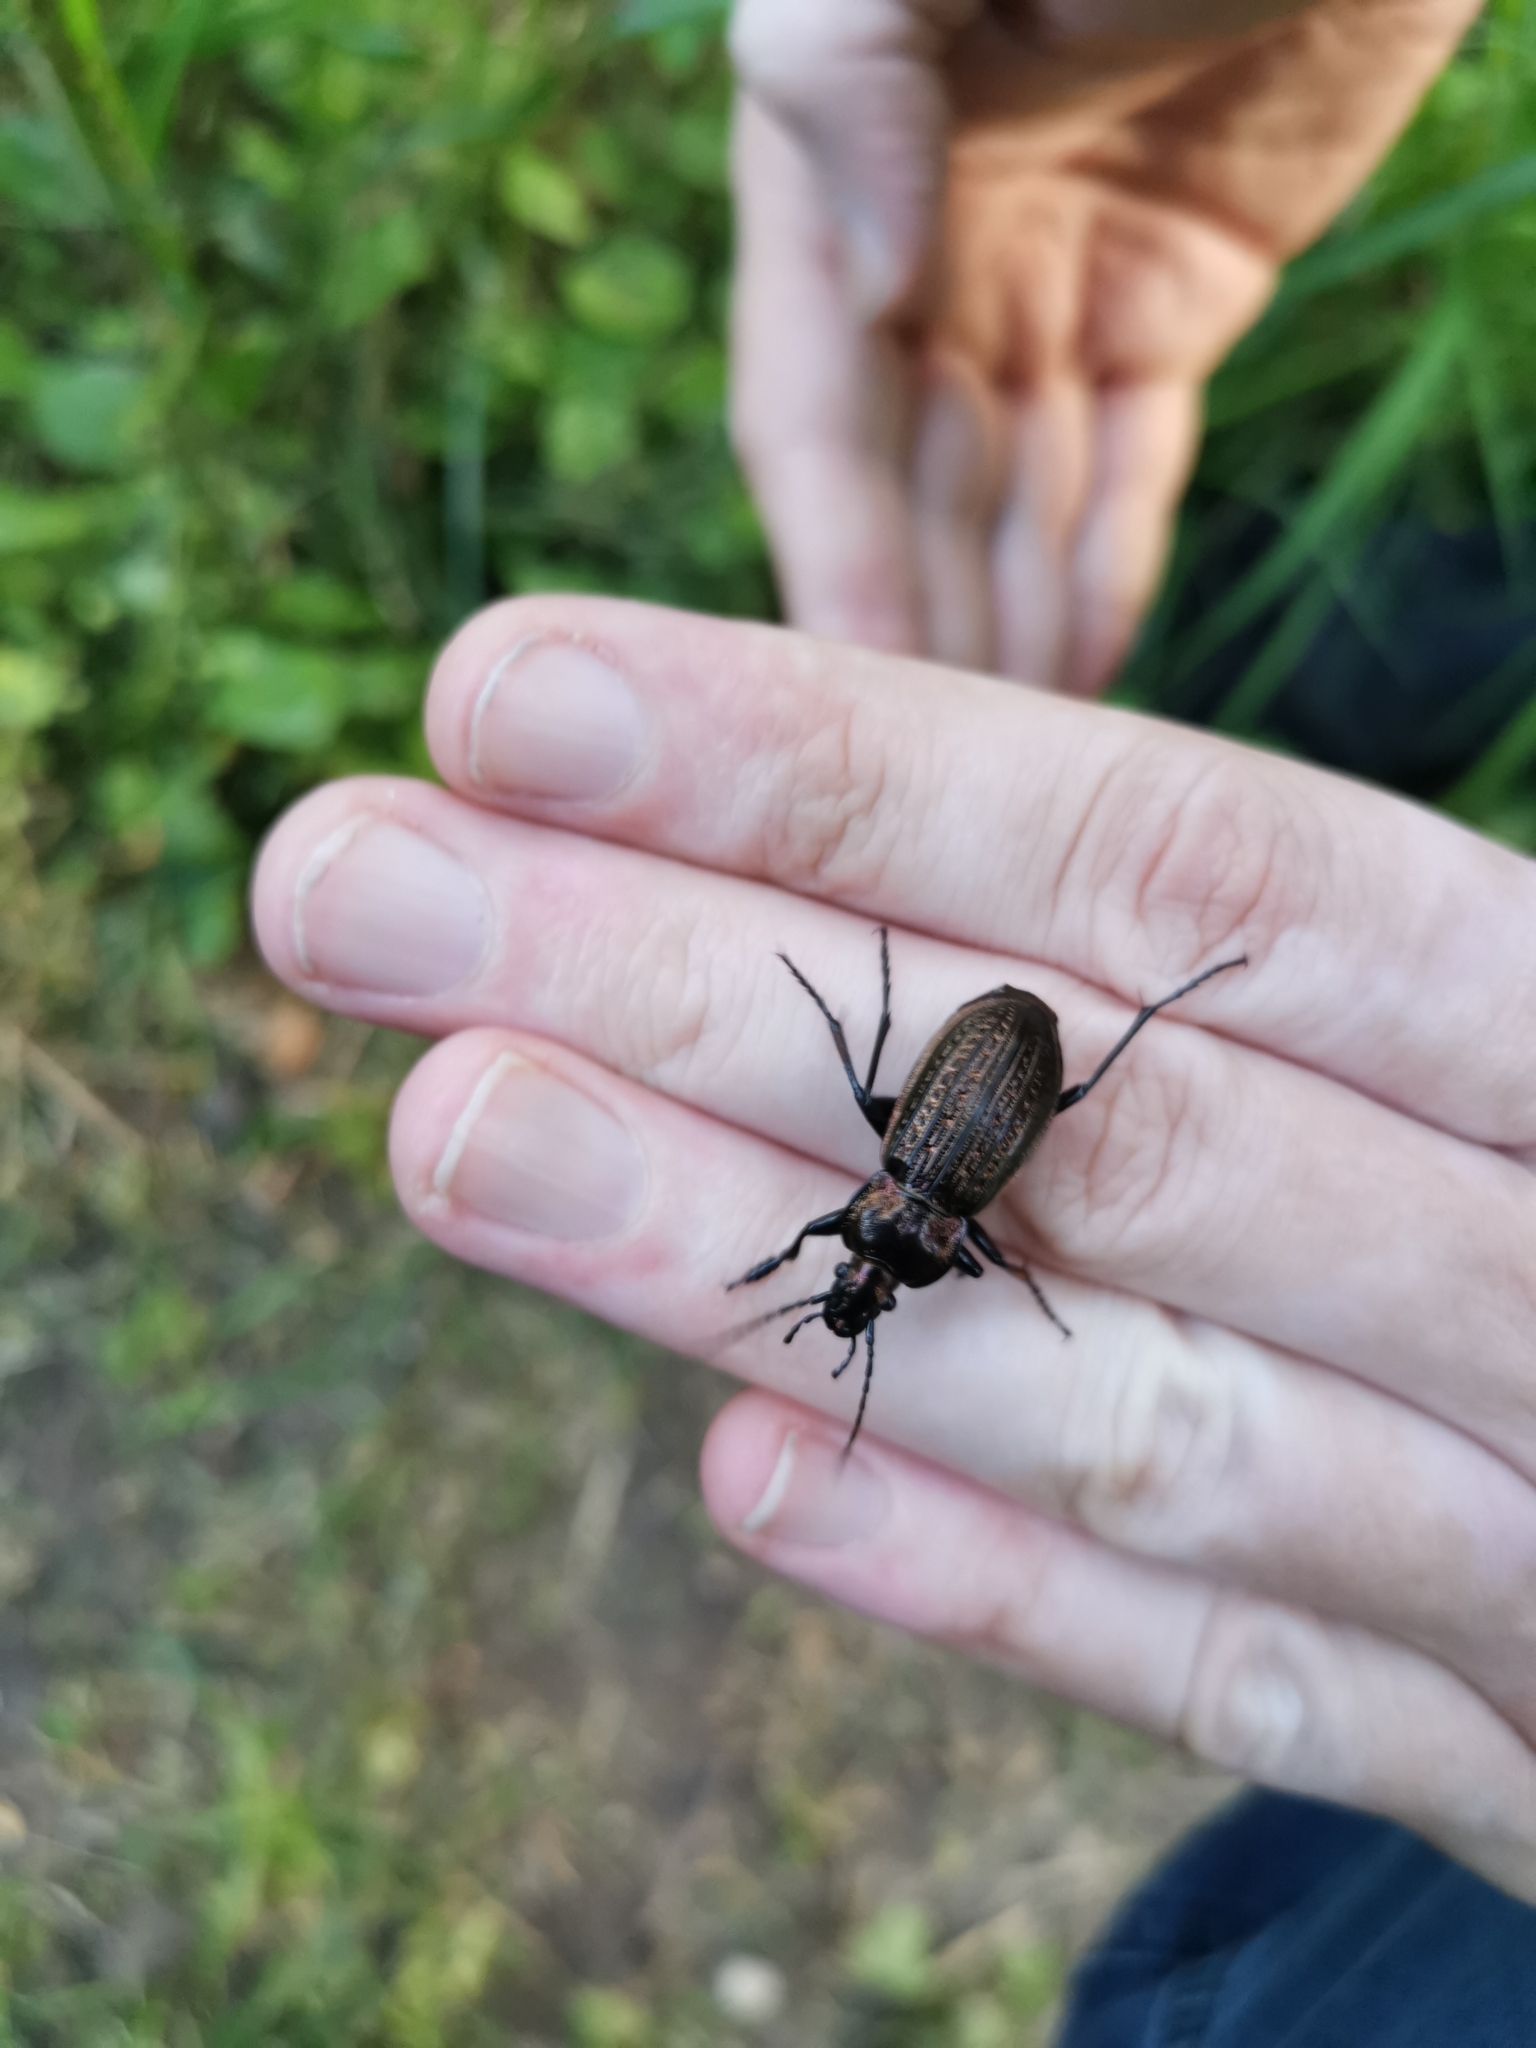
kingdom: Animalia
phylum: Arthropoda
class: Insecta
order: Coleoptera
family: Carabidae
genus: Carabus
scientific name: Carabus ulrichii
